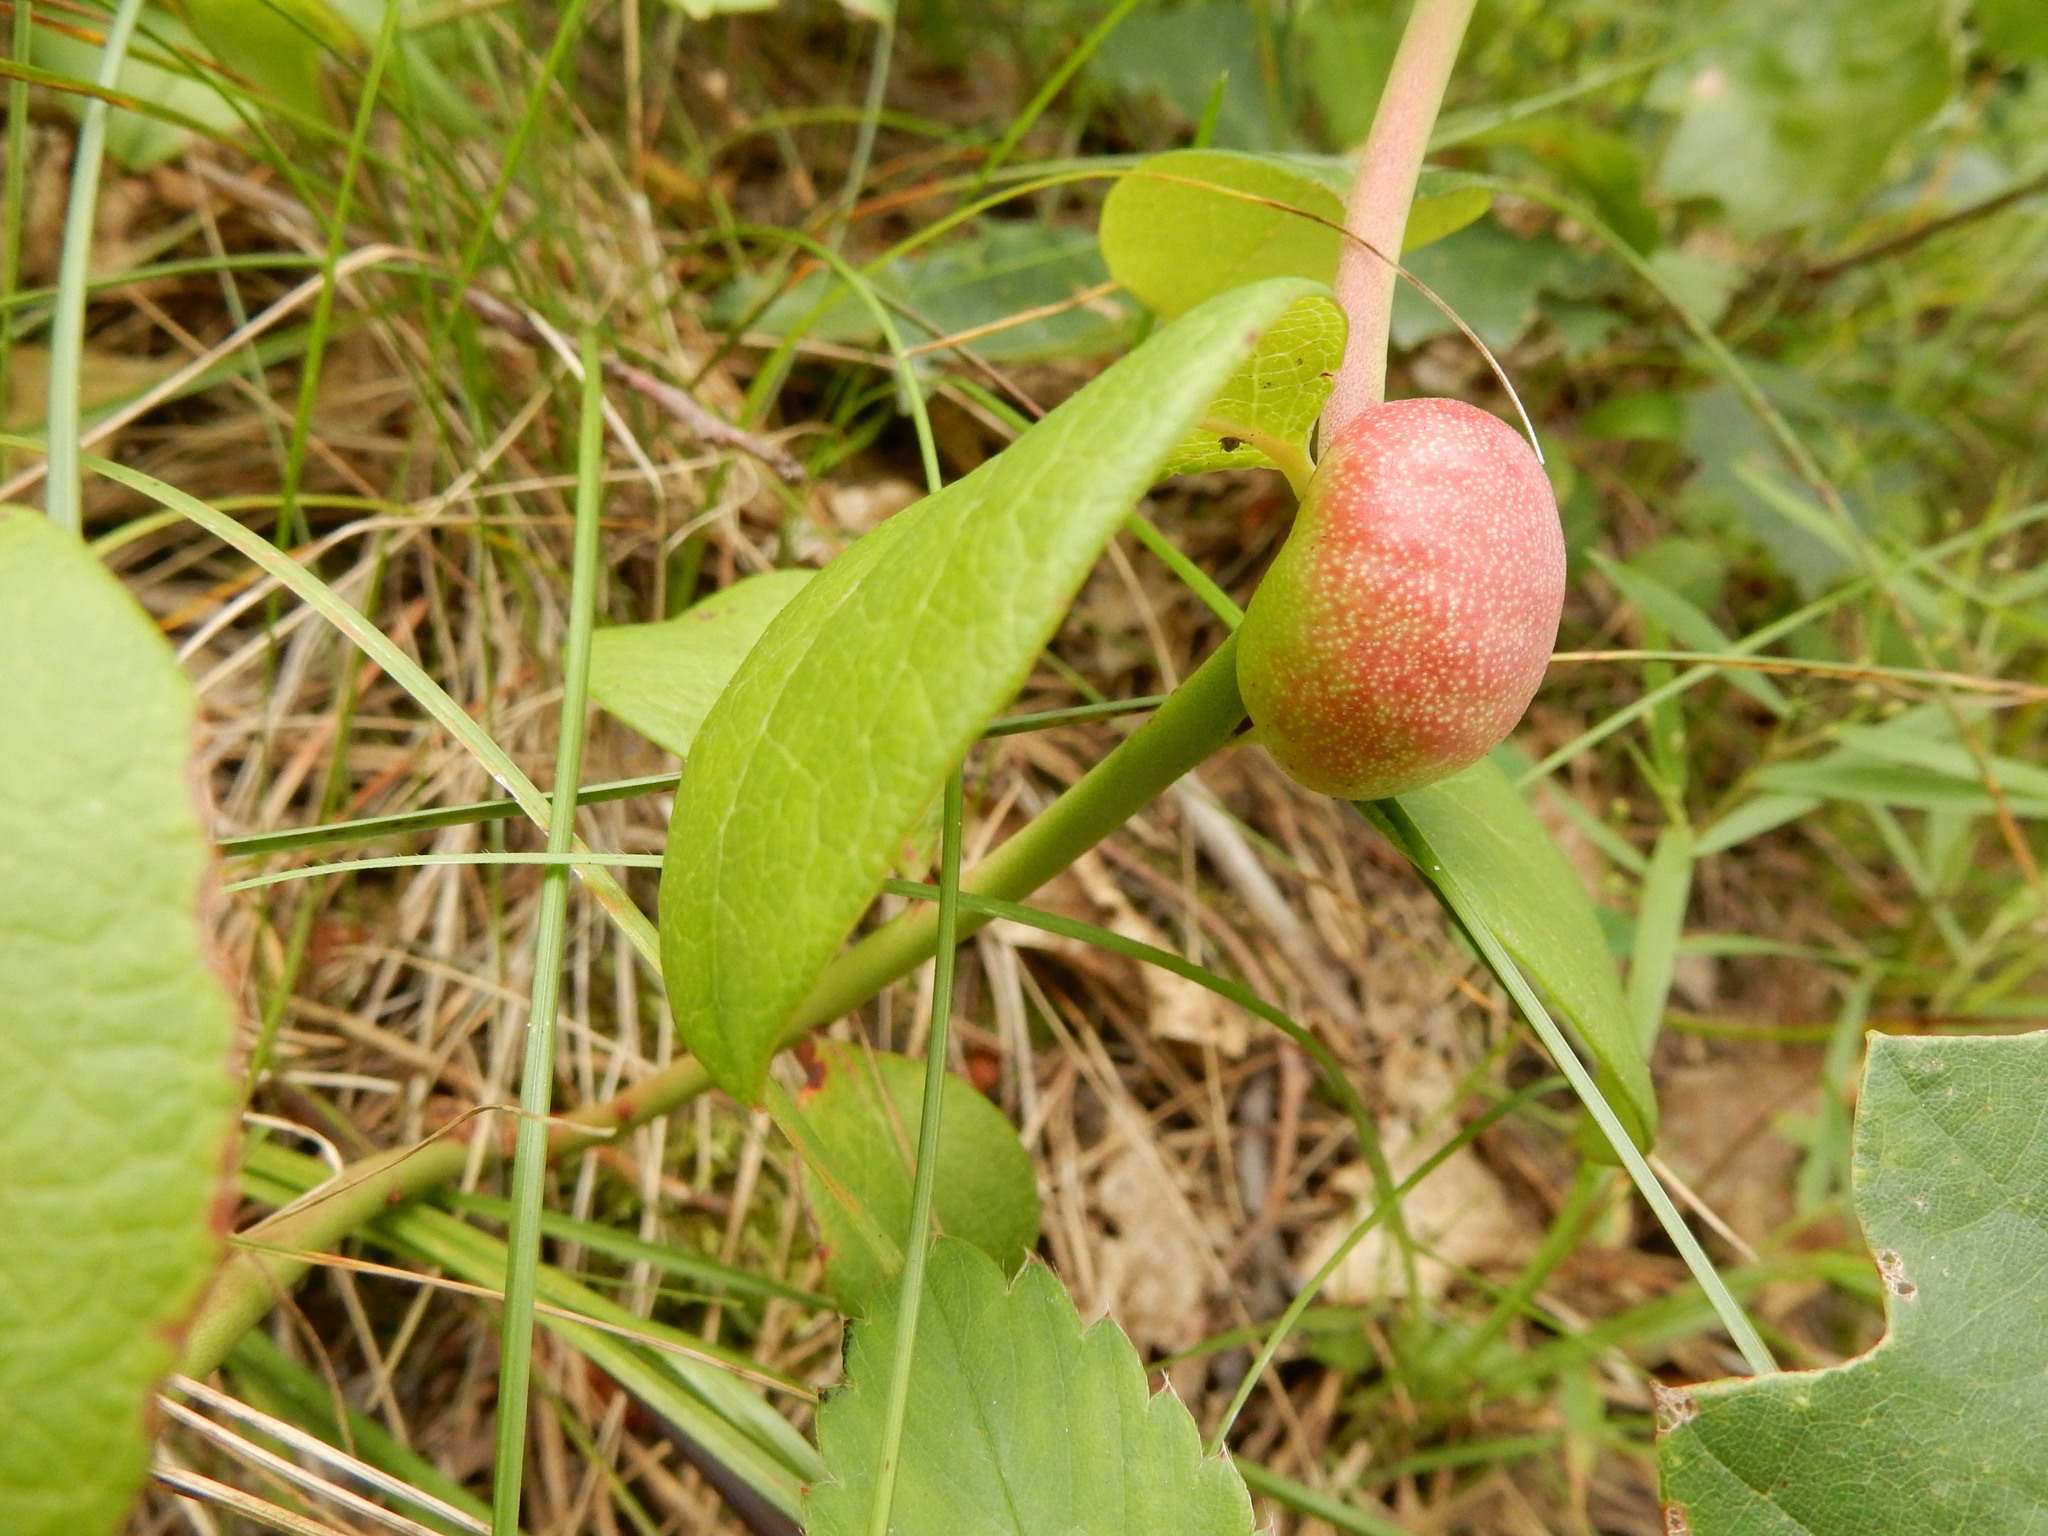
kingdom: Animalia
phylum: Arthropoda
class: Insecta
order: Hymenoptera
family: Pteromalidae
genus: Hemadas
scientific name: Hemadas nubilipennis
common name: Blueberry stem gall wasp
